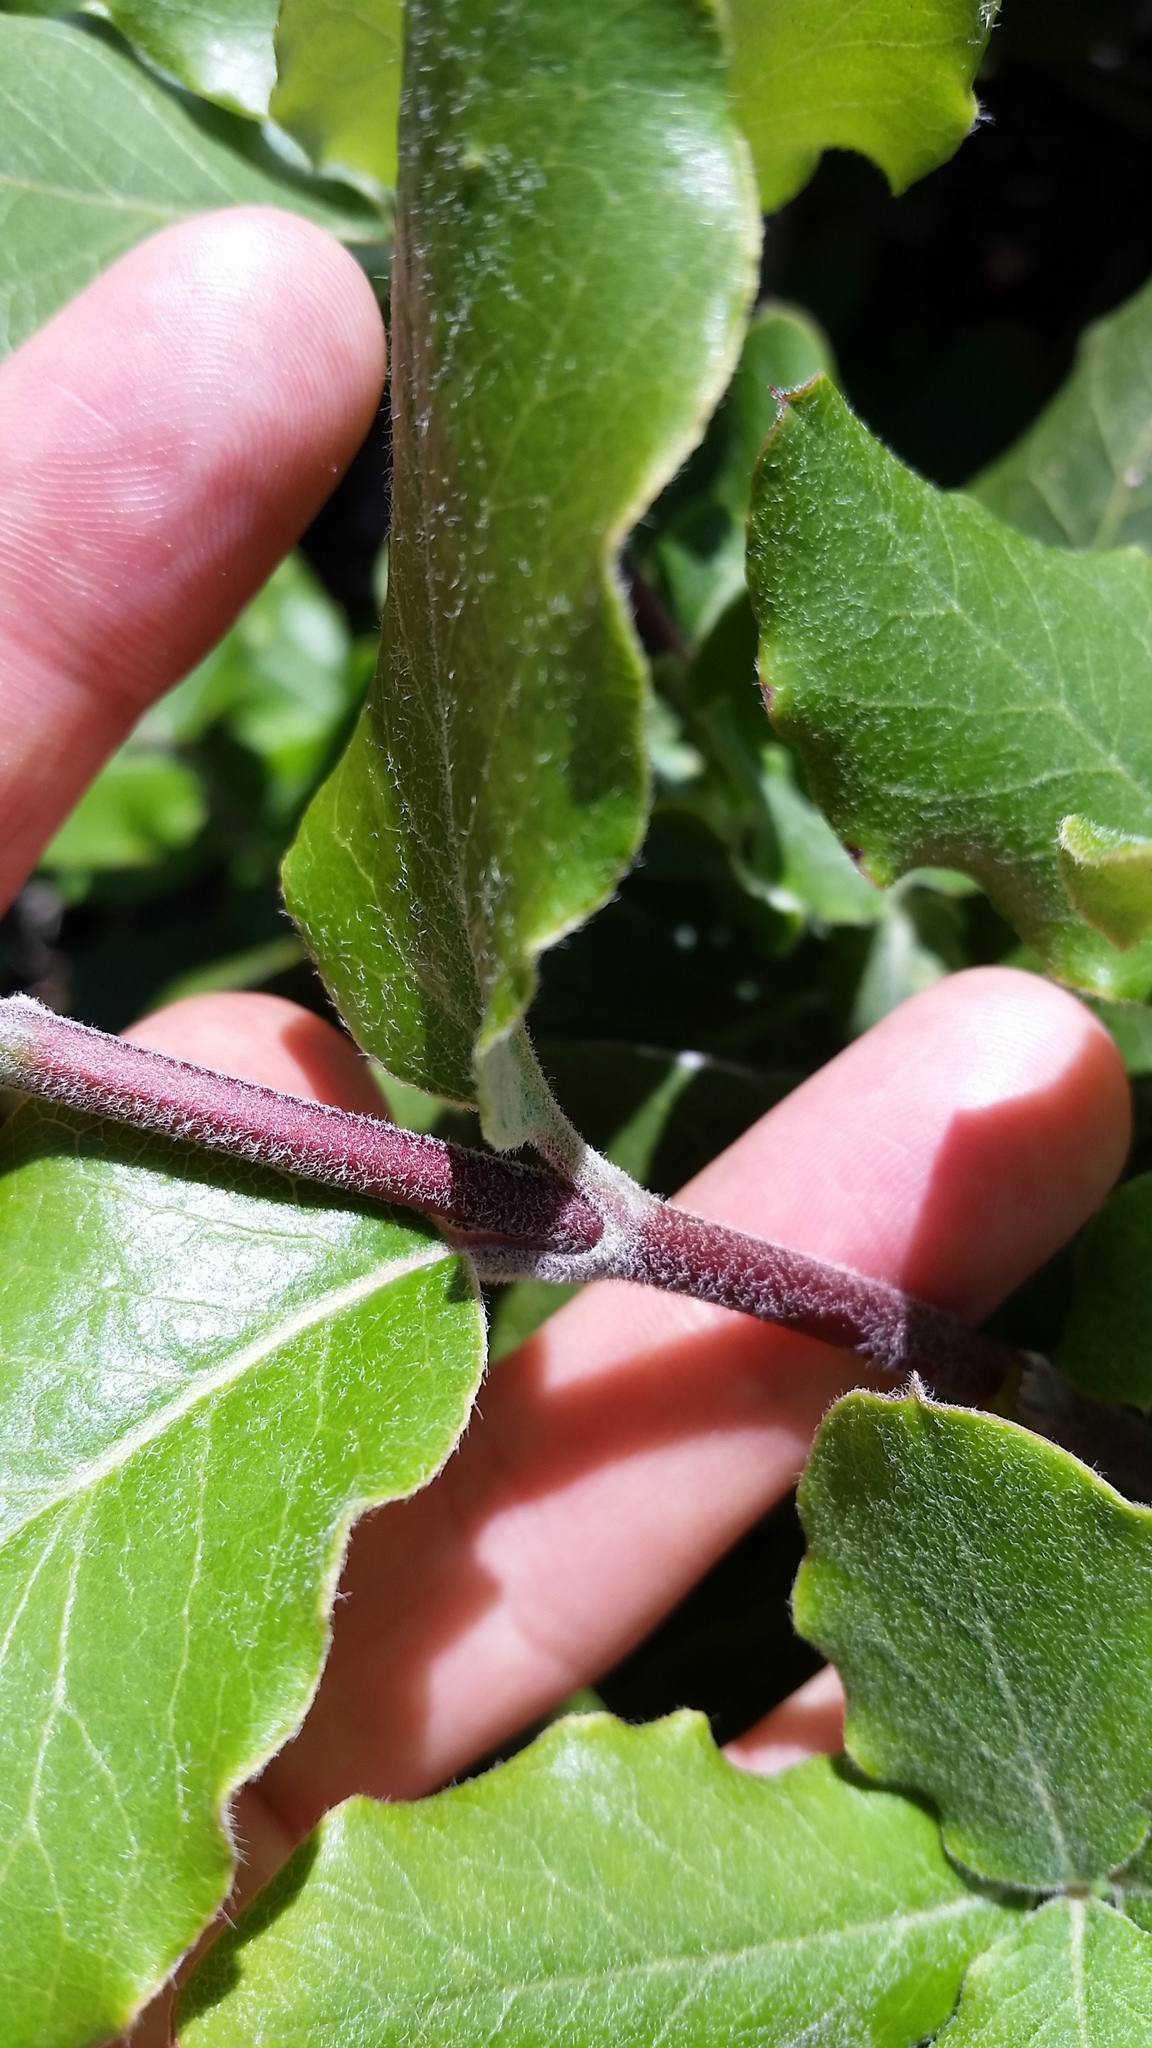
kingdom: Plantae
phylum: Tracheophyta
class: Magnoliopsida
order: Garryales
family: Garryaceae
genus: Garrya
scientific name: Garrya elliptica
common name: Silk-tassel
